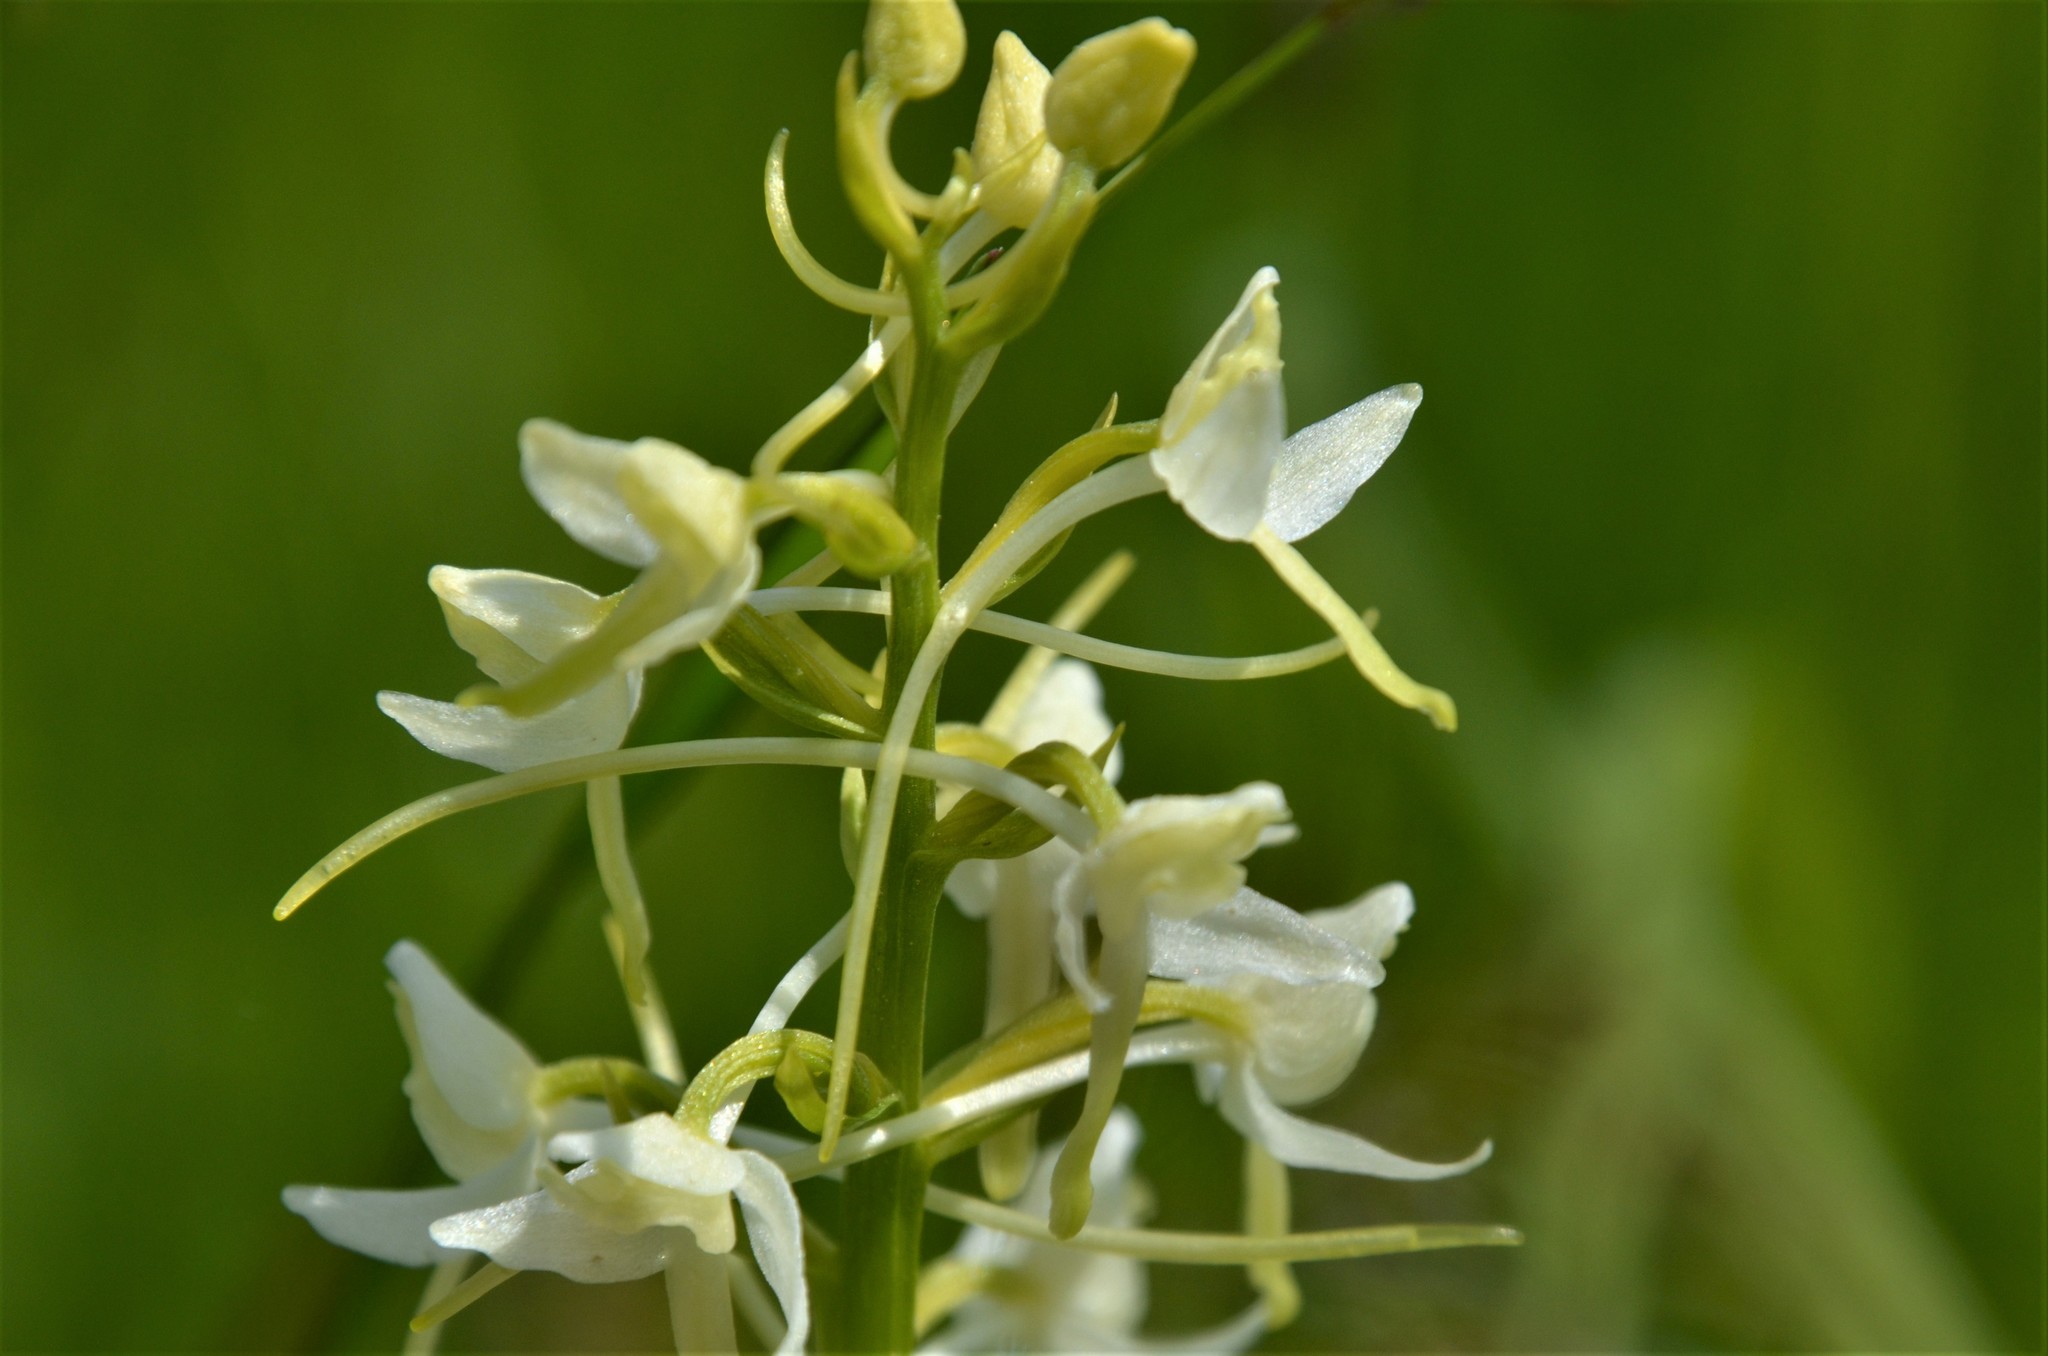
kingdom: Plantae
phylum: Tracheophyta
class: Liliopsida
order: Asparagales
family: Orchidaceae
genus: Platanthera
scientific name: Platanthera bifolia
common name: Lesser butterfly-orchid
